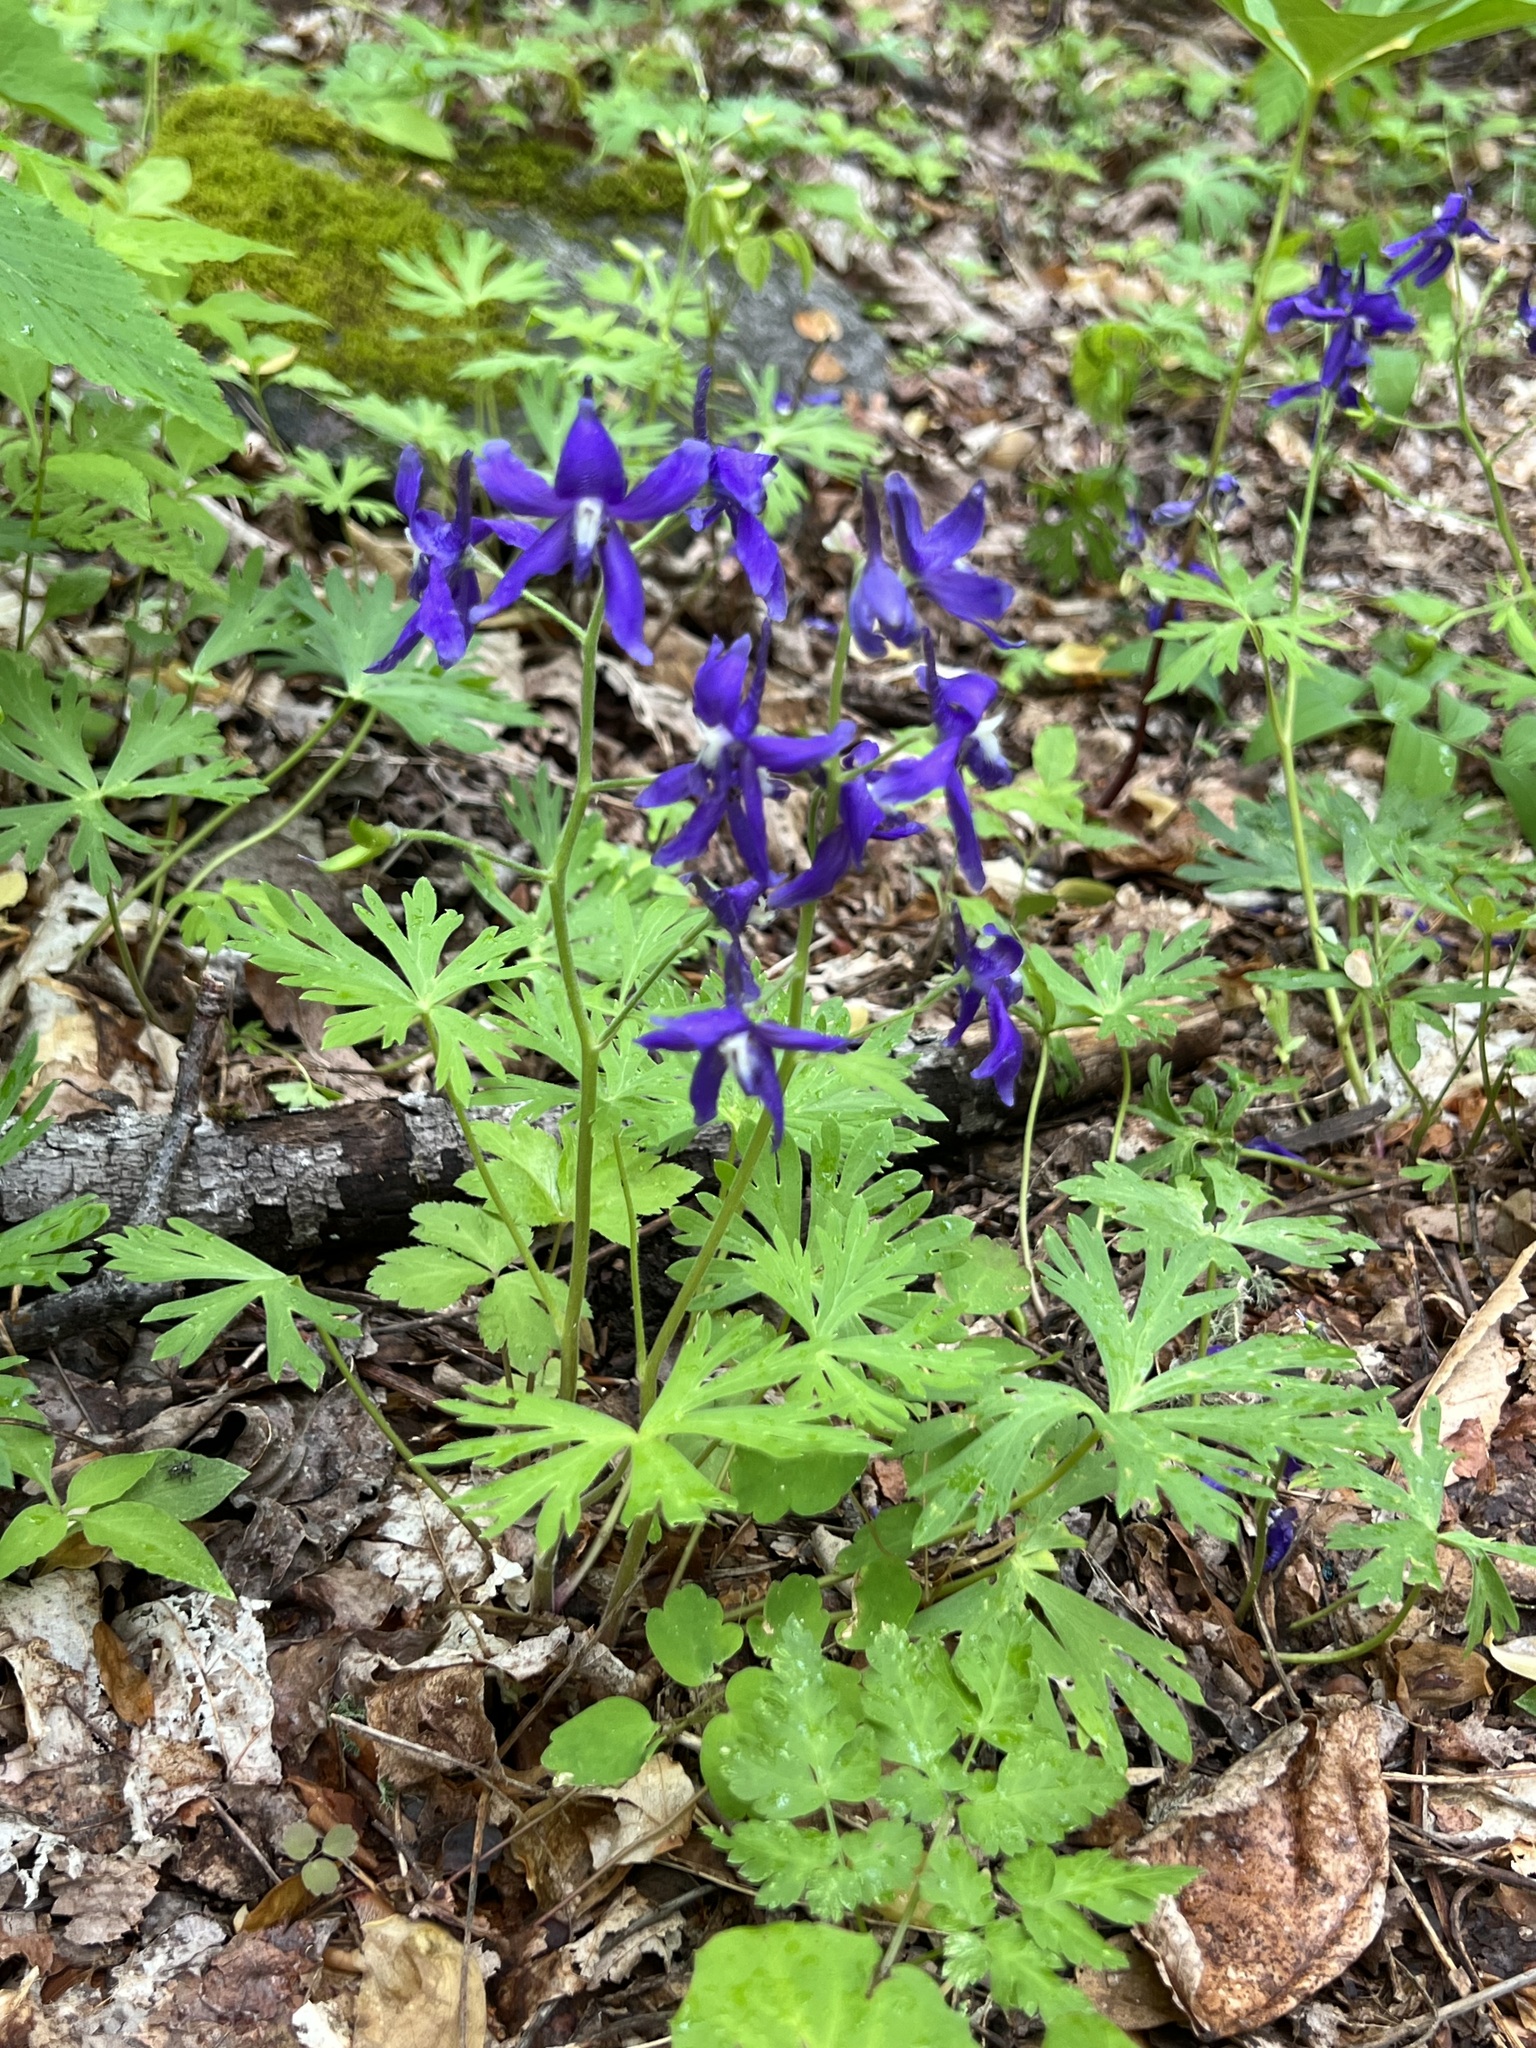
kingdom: Plantae
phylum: Tracheophyta
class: Magnoliopsida
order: Ranunculales
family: Ranunculaceae
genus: Delphinium
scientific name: Delphinium tricorne
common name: Dwarf larkspur
